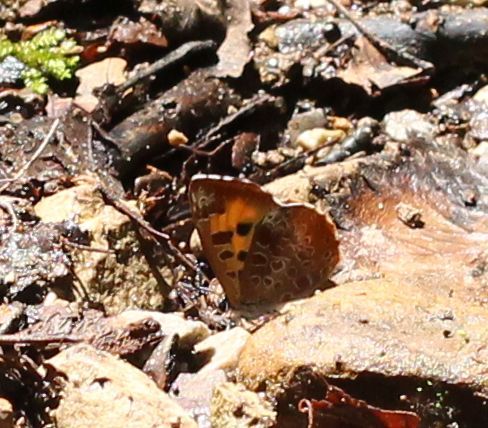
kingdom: Animalia
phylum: Arthropoda
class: Insecta
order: Lepidoptera
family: Lycaenidae
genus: Feniseca
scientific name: Feniseca tarquinius
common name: Harvester
